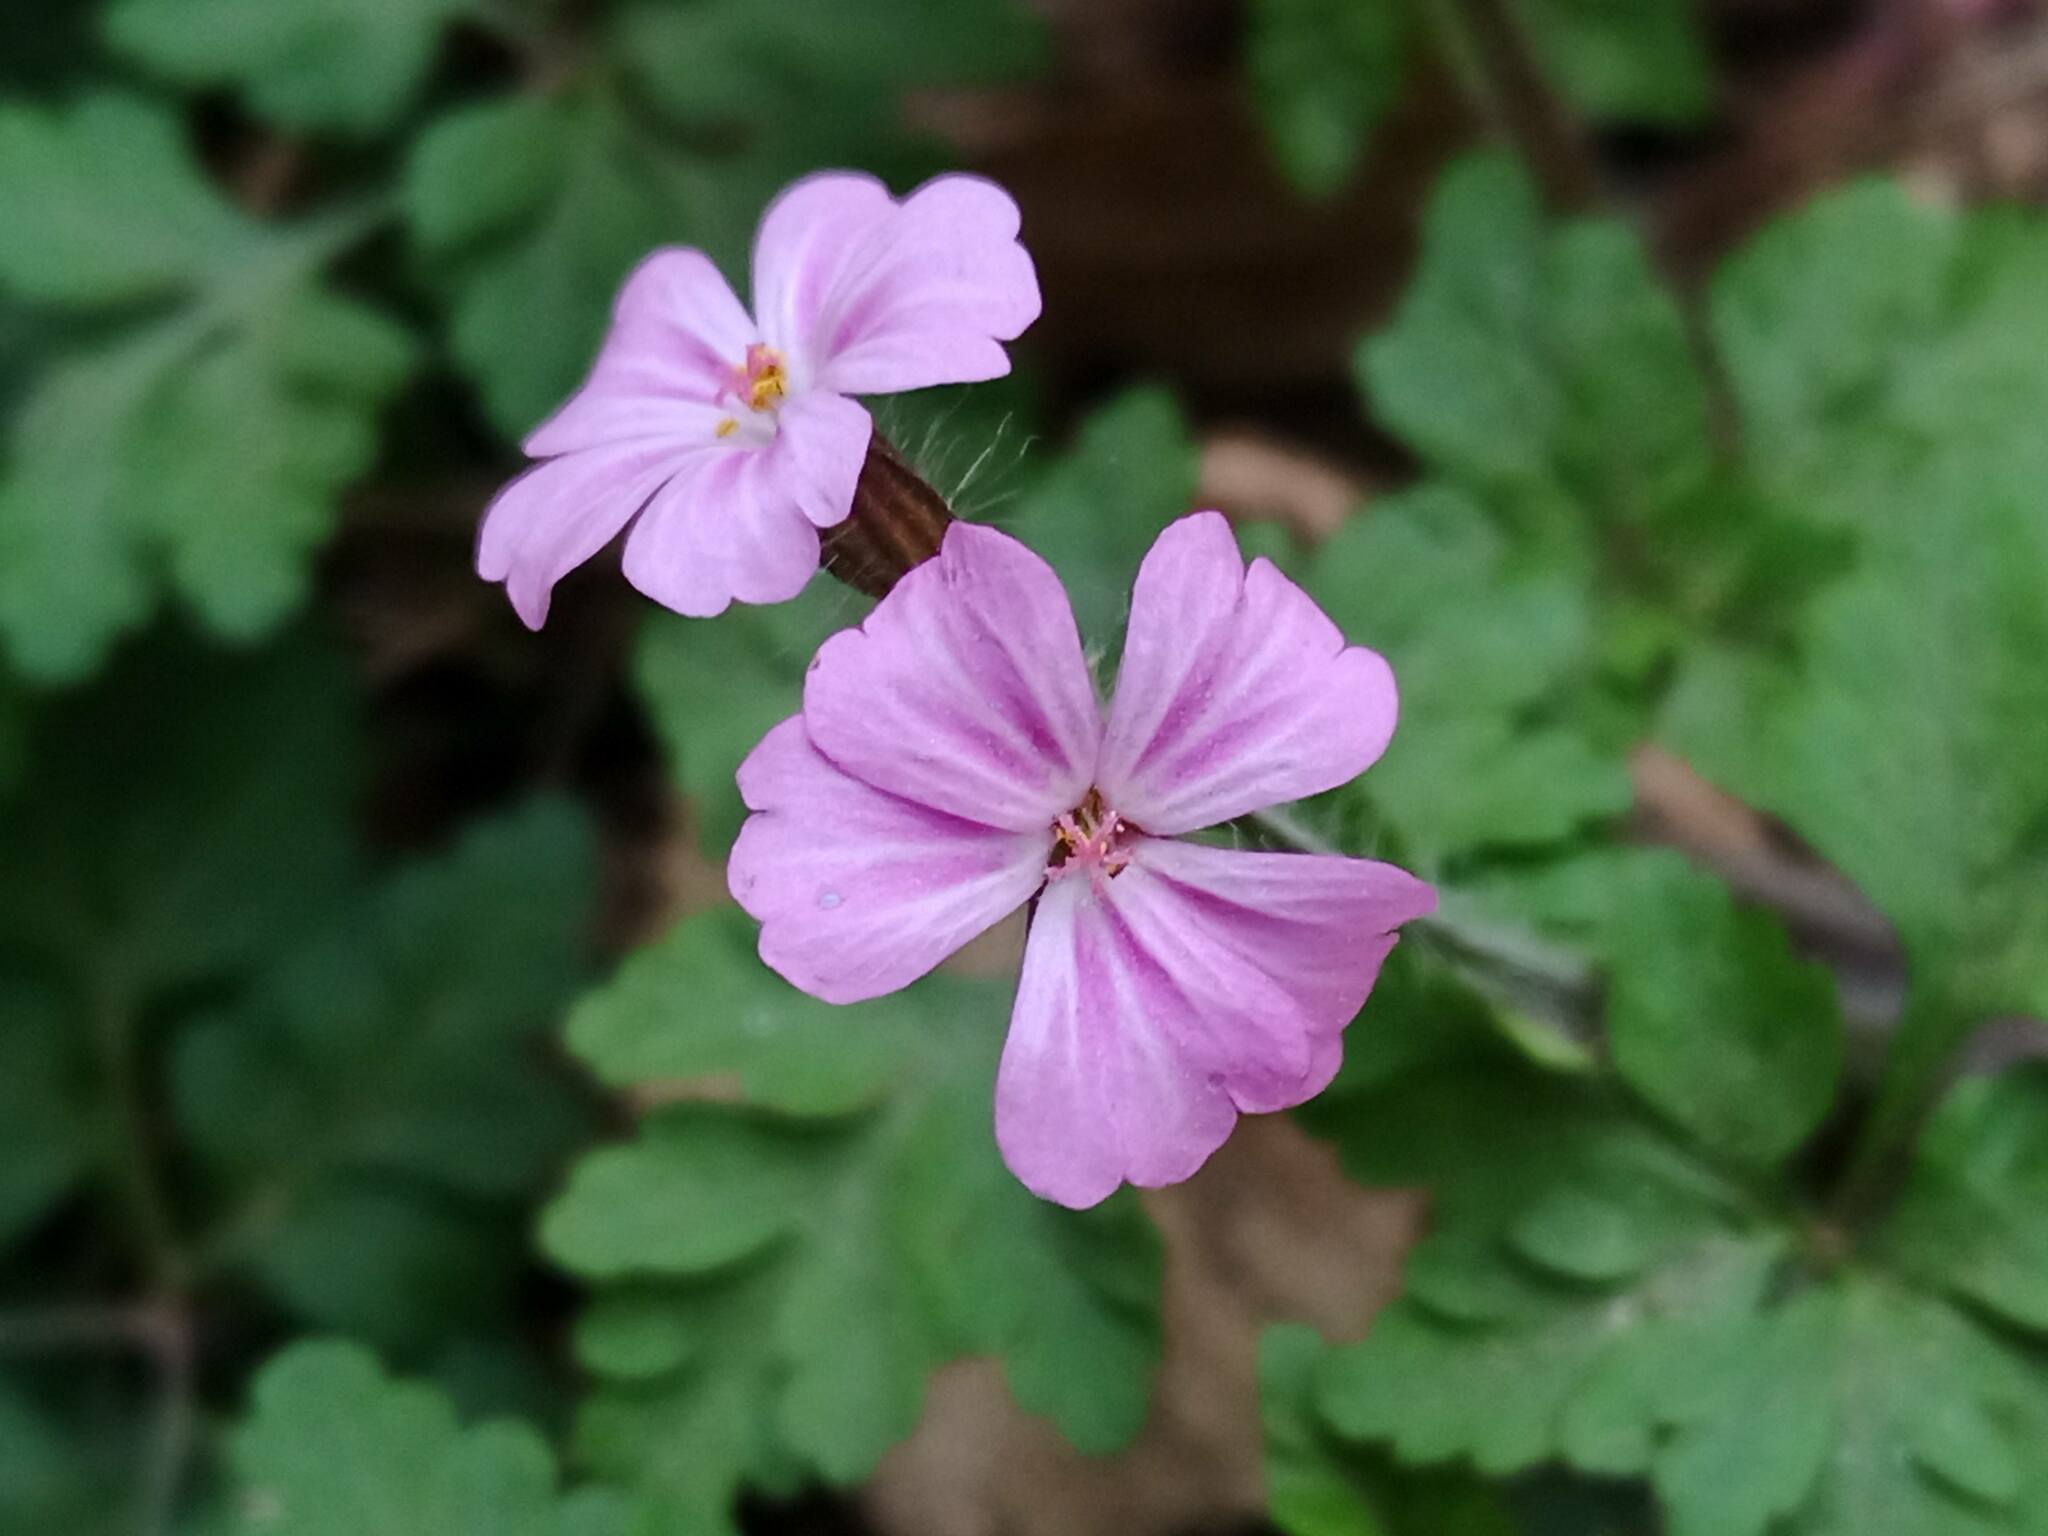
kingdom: Plantae
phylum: Tracheophyta
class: Magnoliopsida
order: Geraniales
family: Geraniaceae
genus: Geranium
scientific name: Geranium robertianum
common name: Herb-robert
